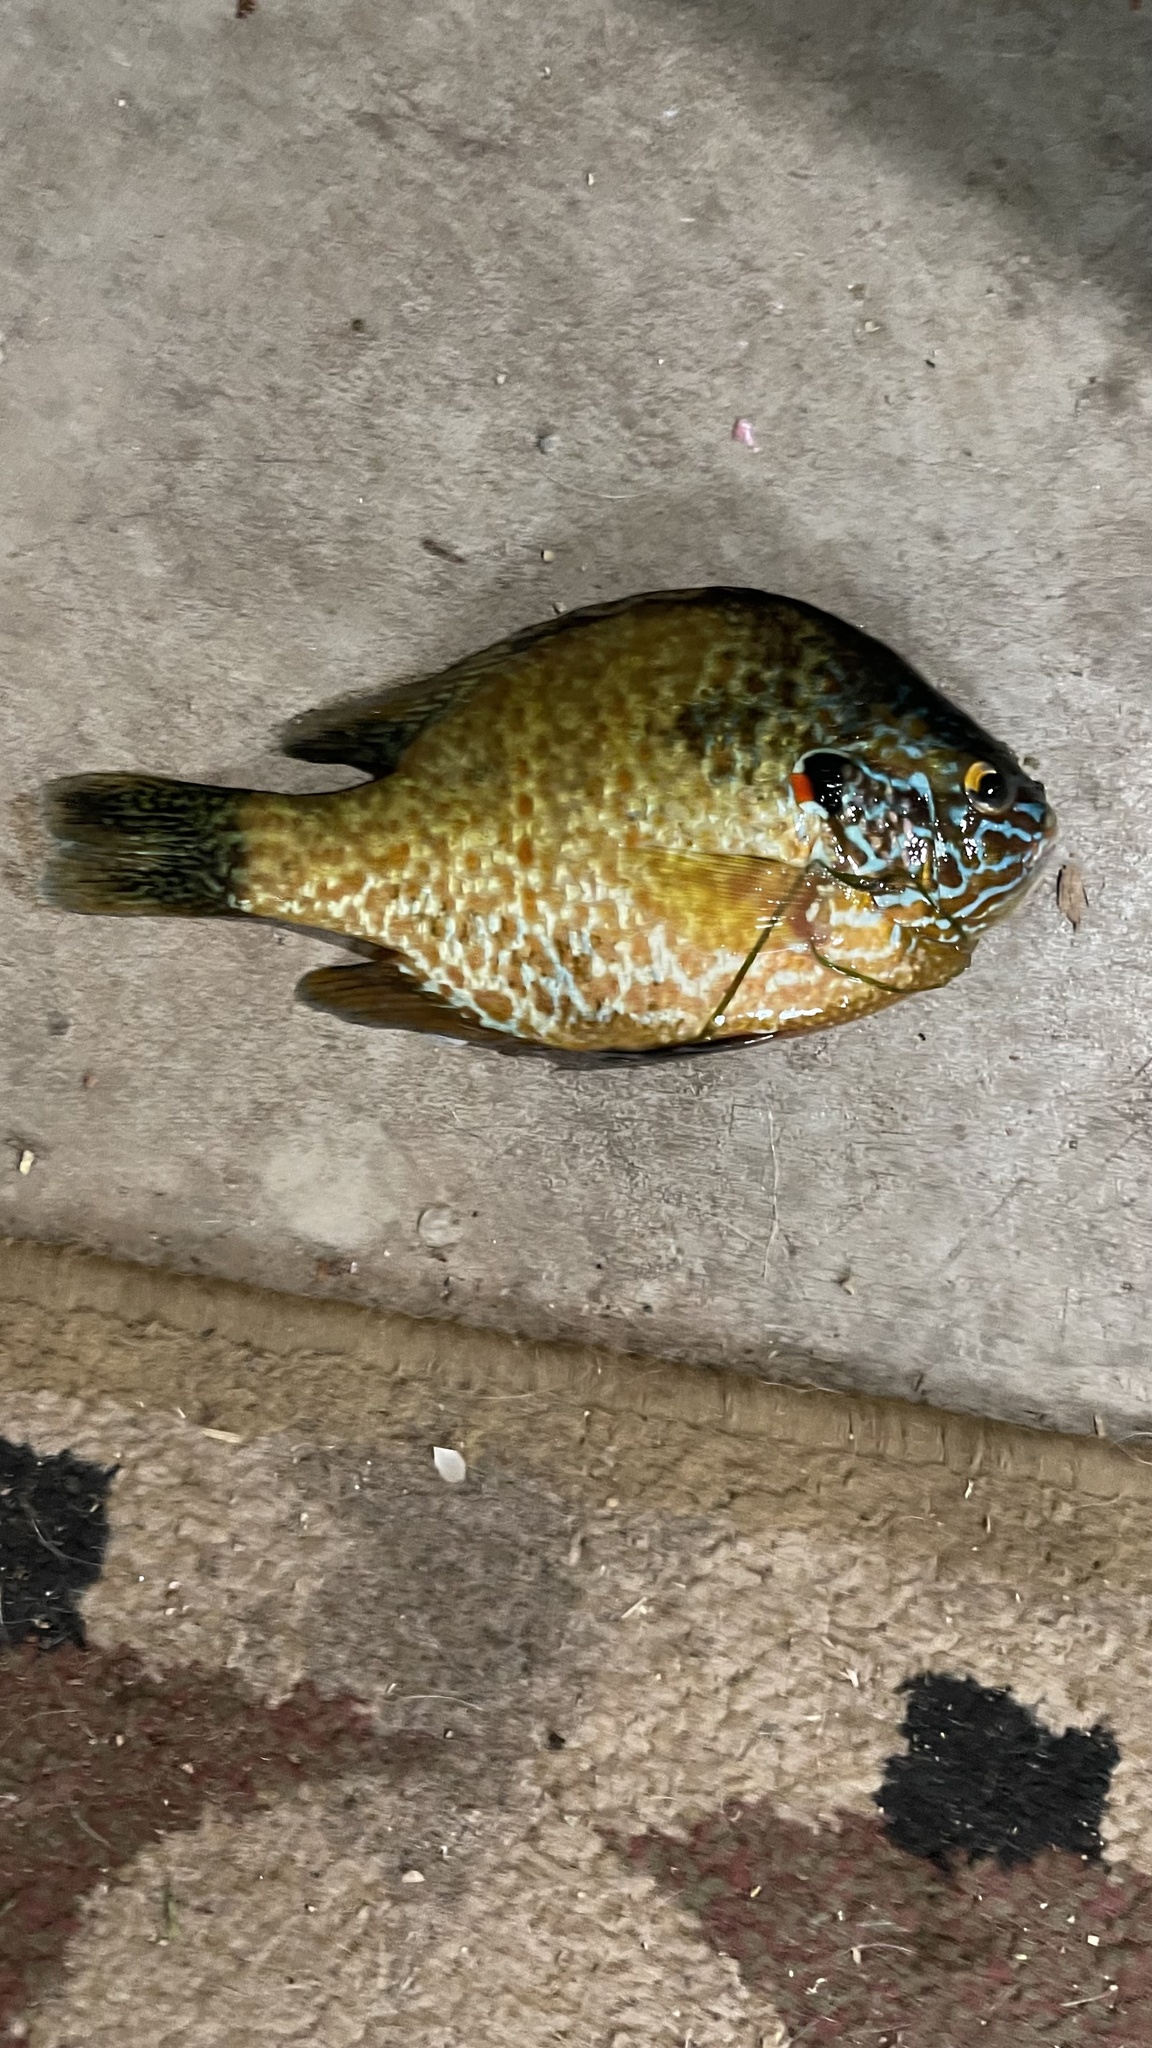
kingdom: Animalia
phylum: Chordata
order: Perciformes
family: Centrarchidae
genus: Lepomis
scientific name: Lepomis gibbosus
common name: Pumpkinseed
